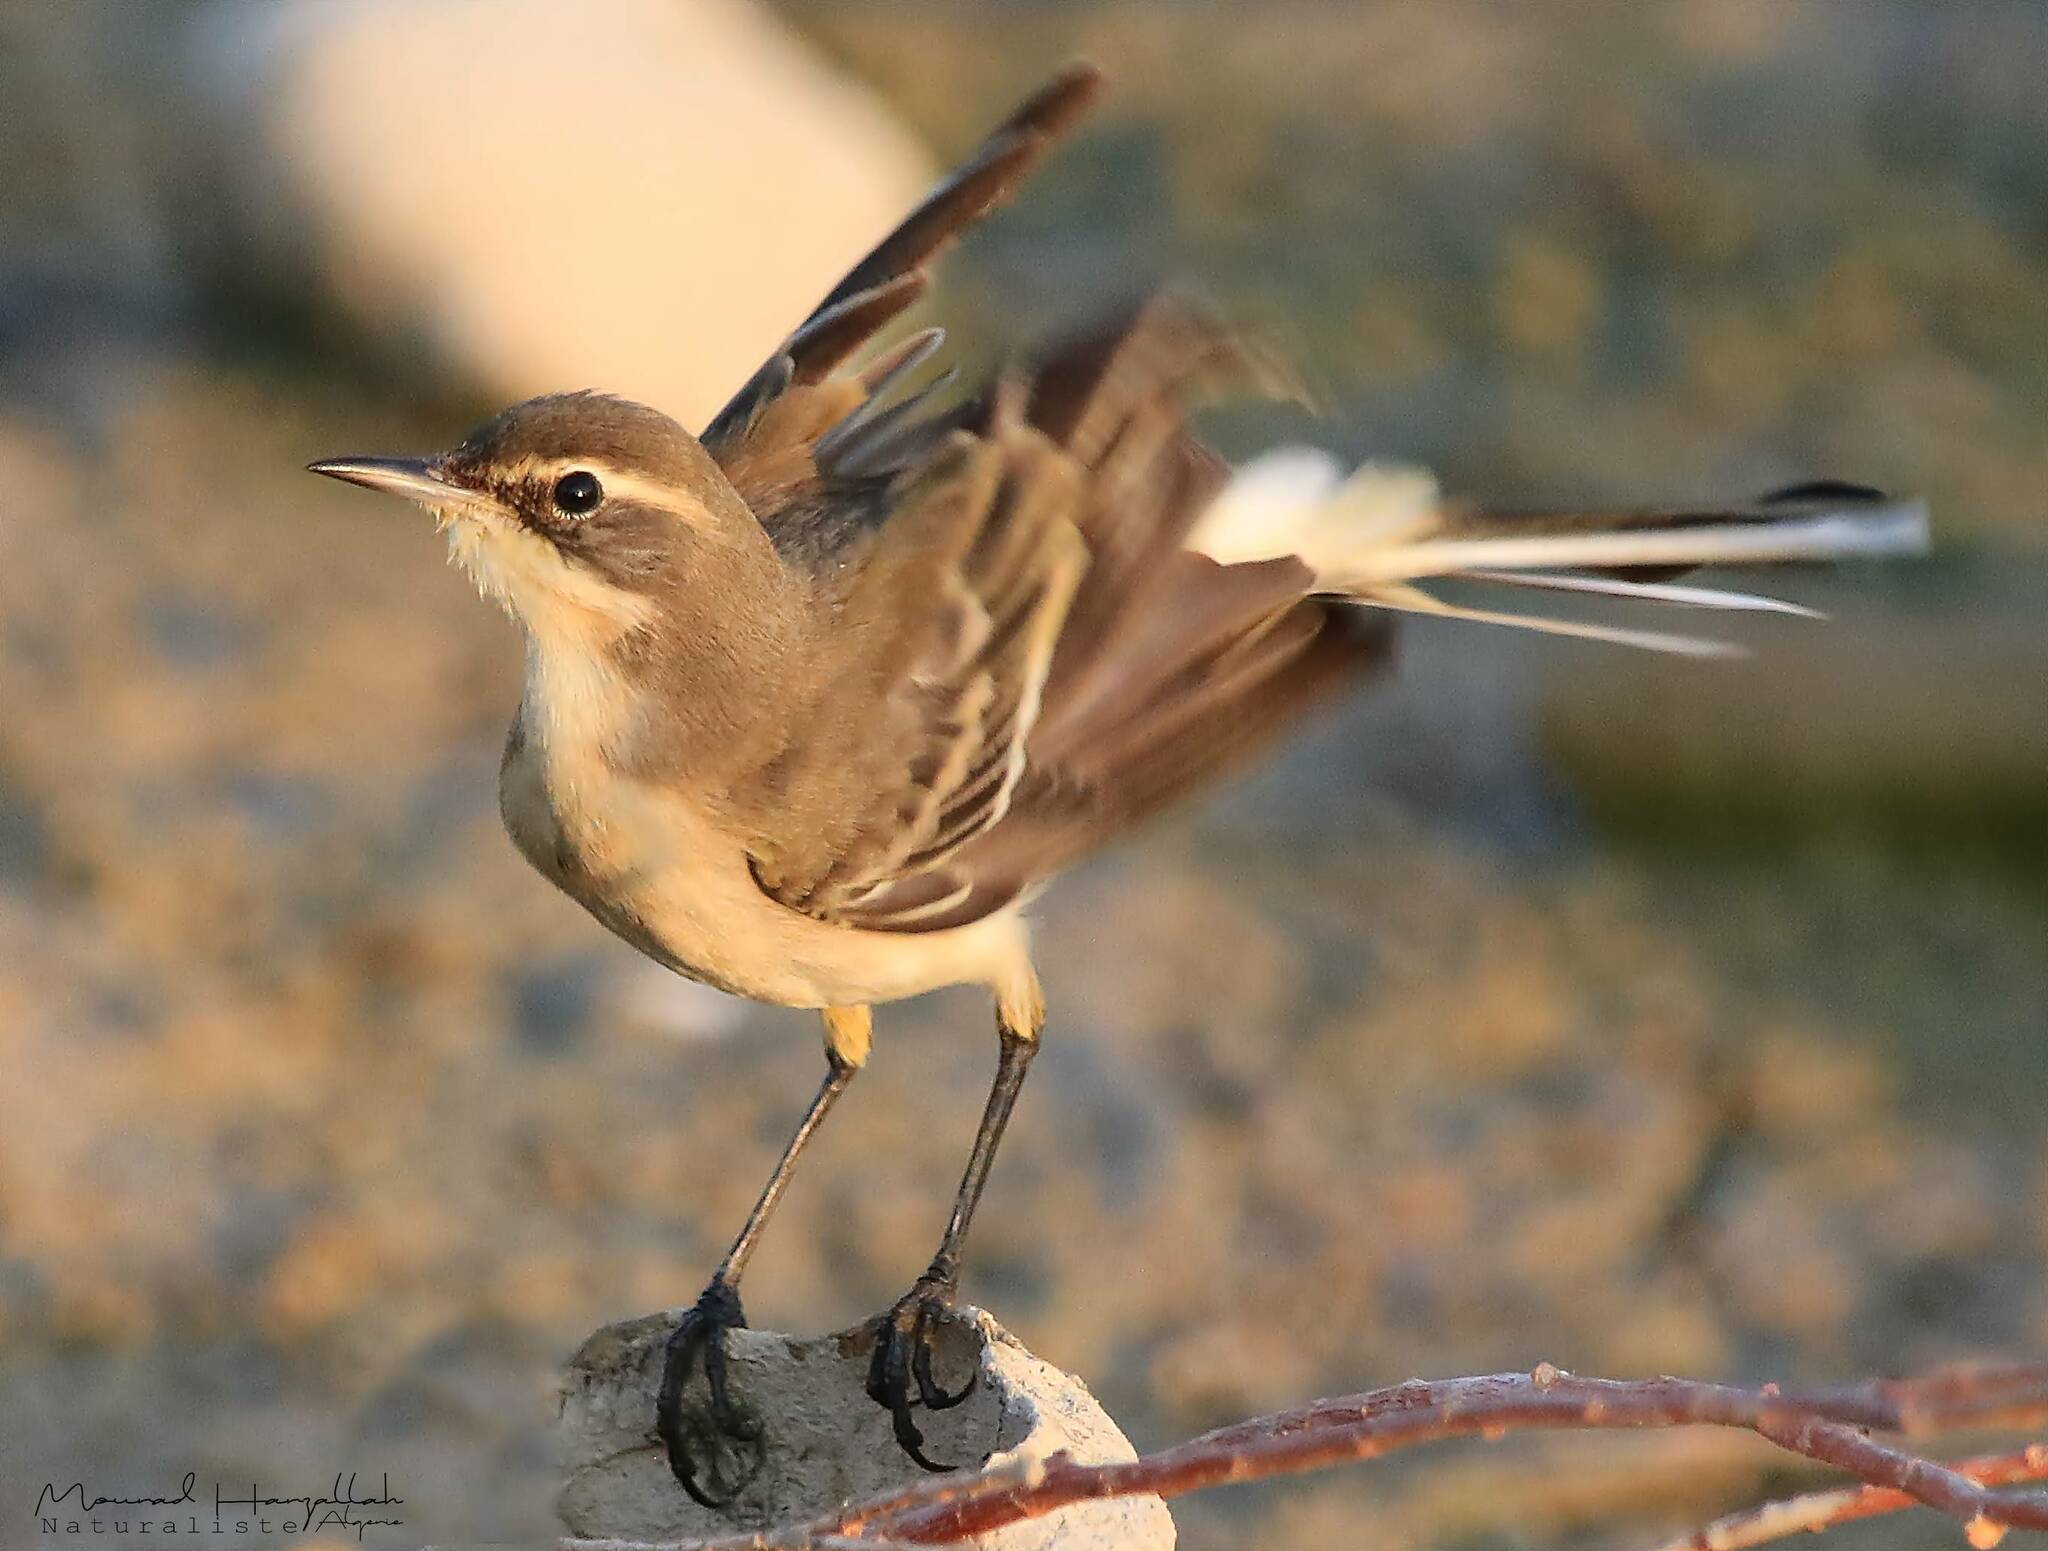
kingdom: Animalia
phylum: Chordata
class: Aves
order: Passeriformes
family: Motacillidae
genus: Motacilla
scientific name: Motacilla flava
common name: Western yellow wagtail
